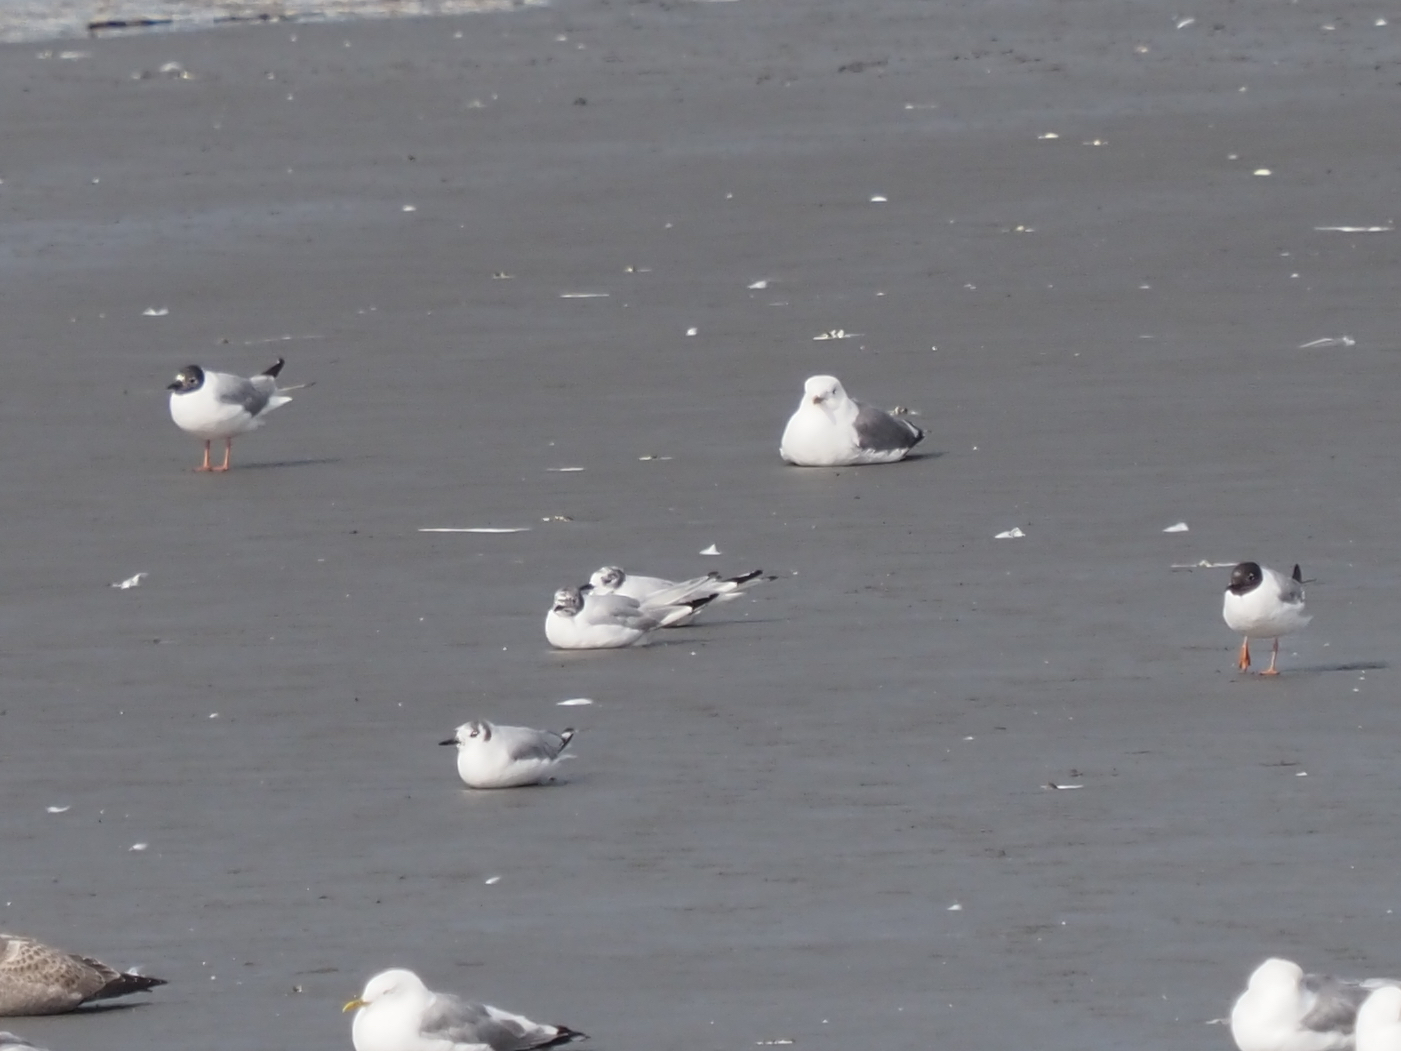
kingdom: Animalia
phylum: Chordata
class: Aves
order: Charadriiformes
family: Laridae
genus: Chroicocephalus
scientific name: Chroicocephalus philadelphia
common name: Bonaparte's gull
